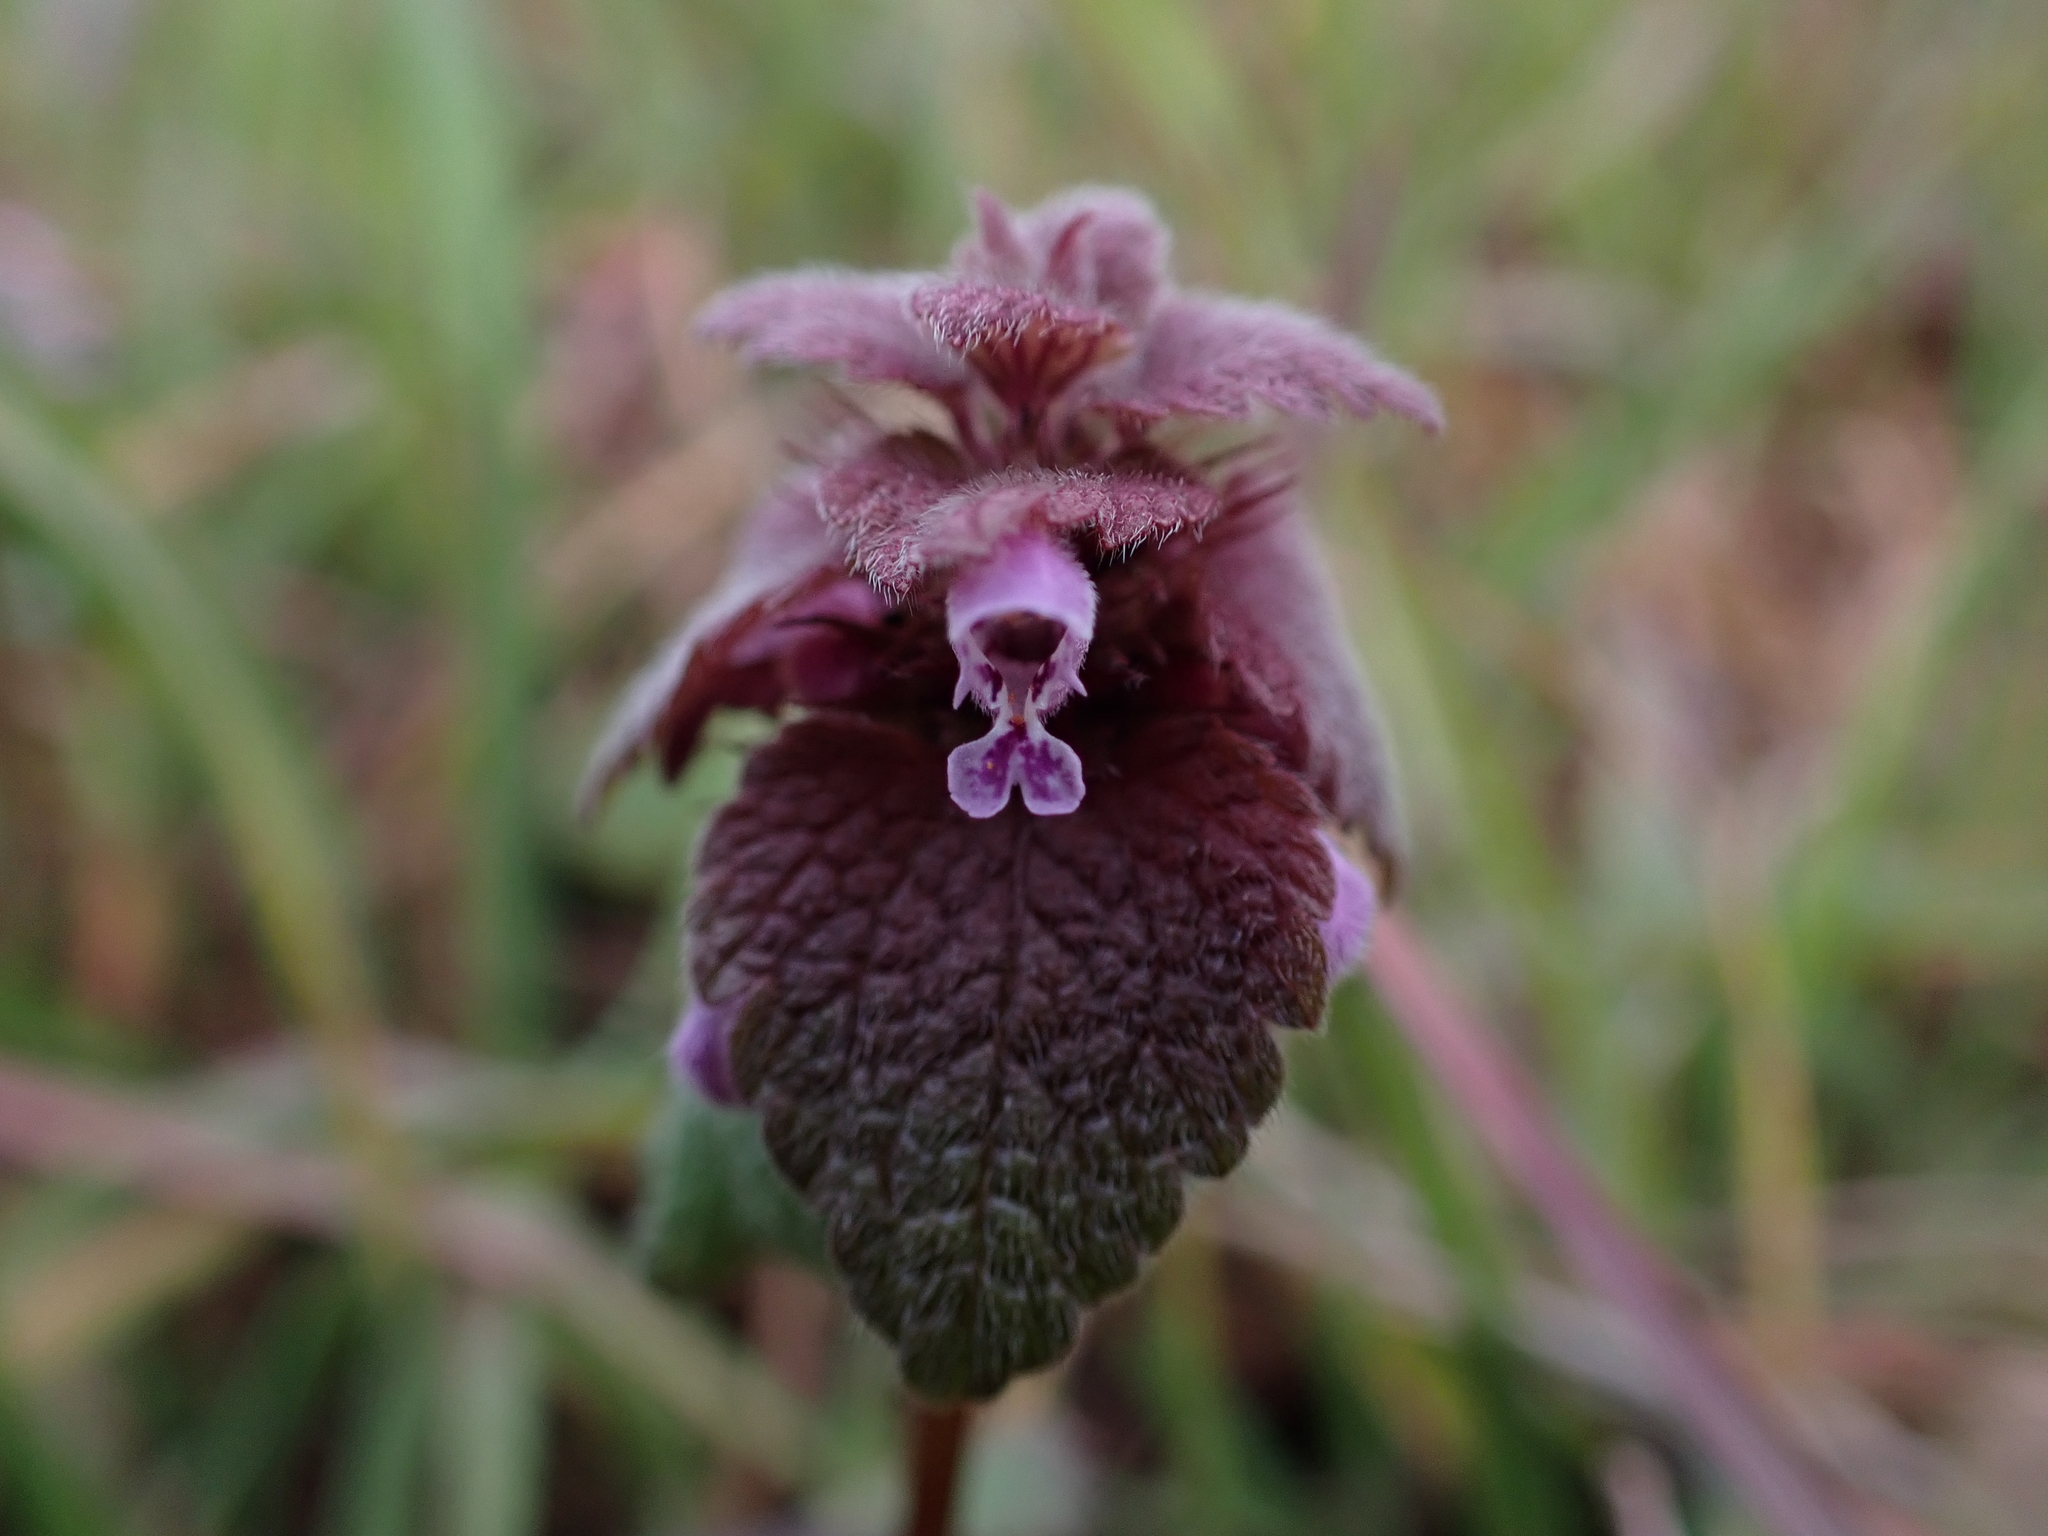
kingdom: Plantae
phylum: Tracheophyta
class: Magnoliopsida
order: Lamiales
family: Lamiaceae
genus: Lamium
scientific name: Lamium purpureum
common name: Red dead-nettle
